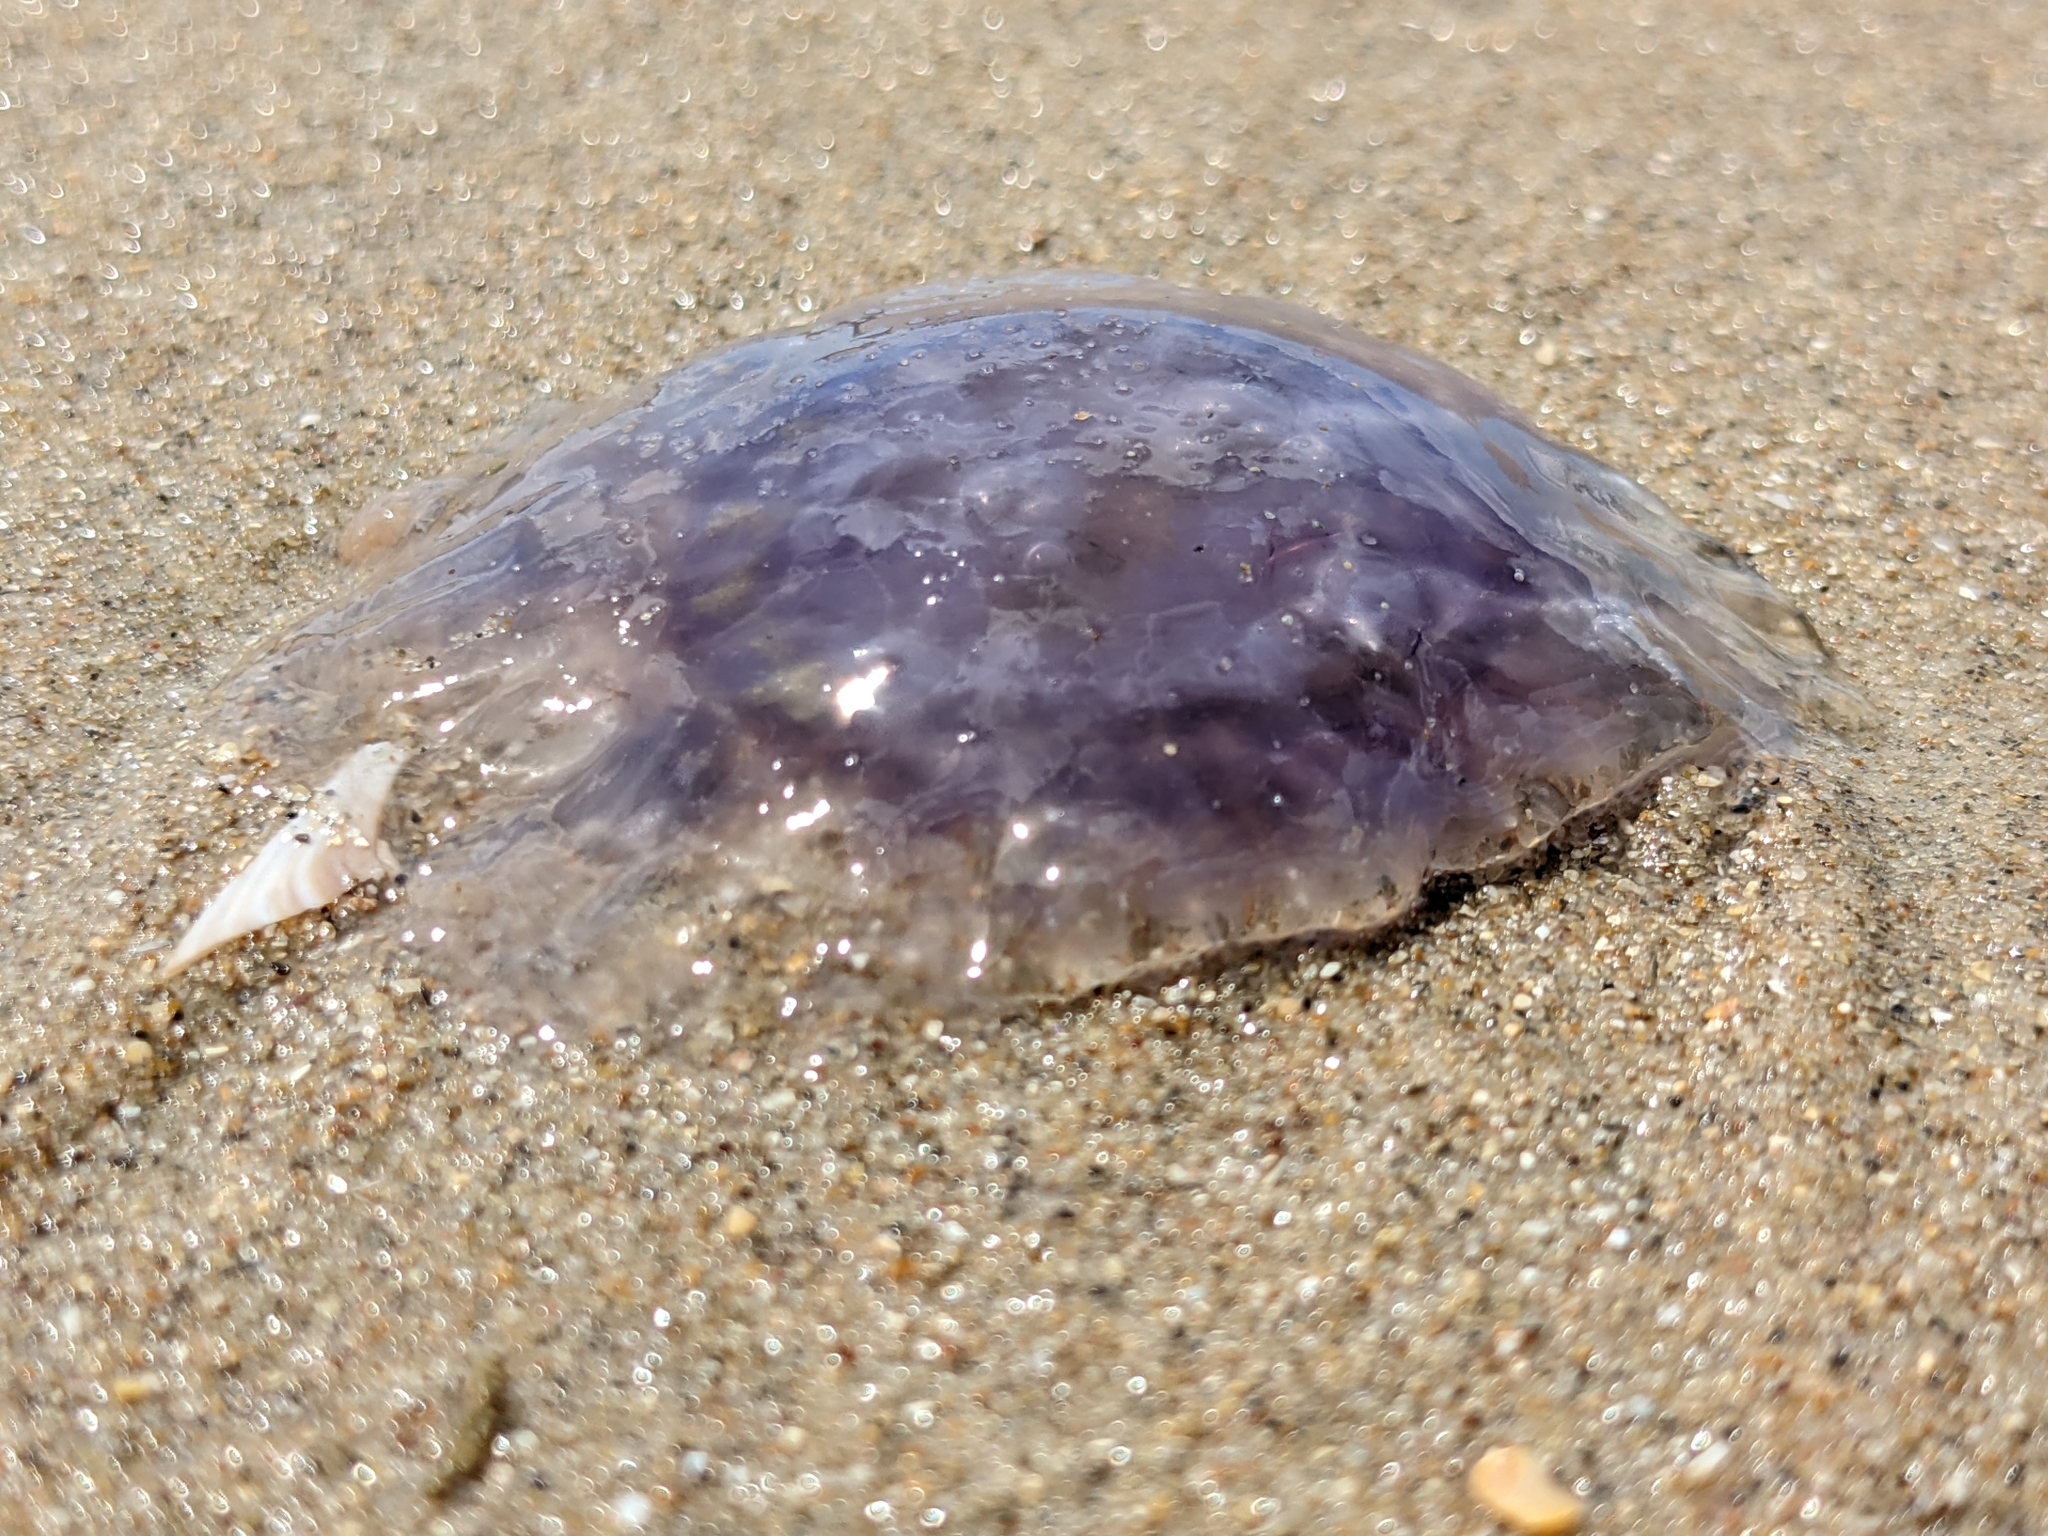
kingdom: Animalia
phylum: Cnidaria
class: Scyphozoa
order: Semaeostomeae
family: Cyaneidae
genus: Cyanea
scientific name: Cyanea lamarckii
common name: Blue jellyfish
